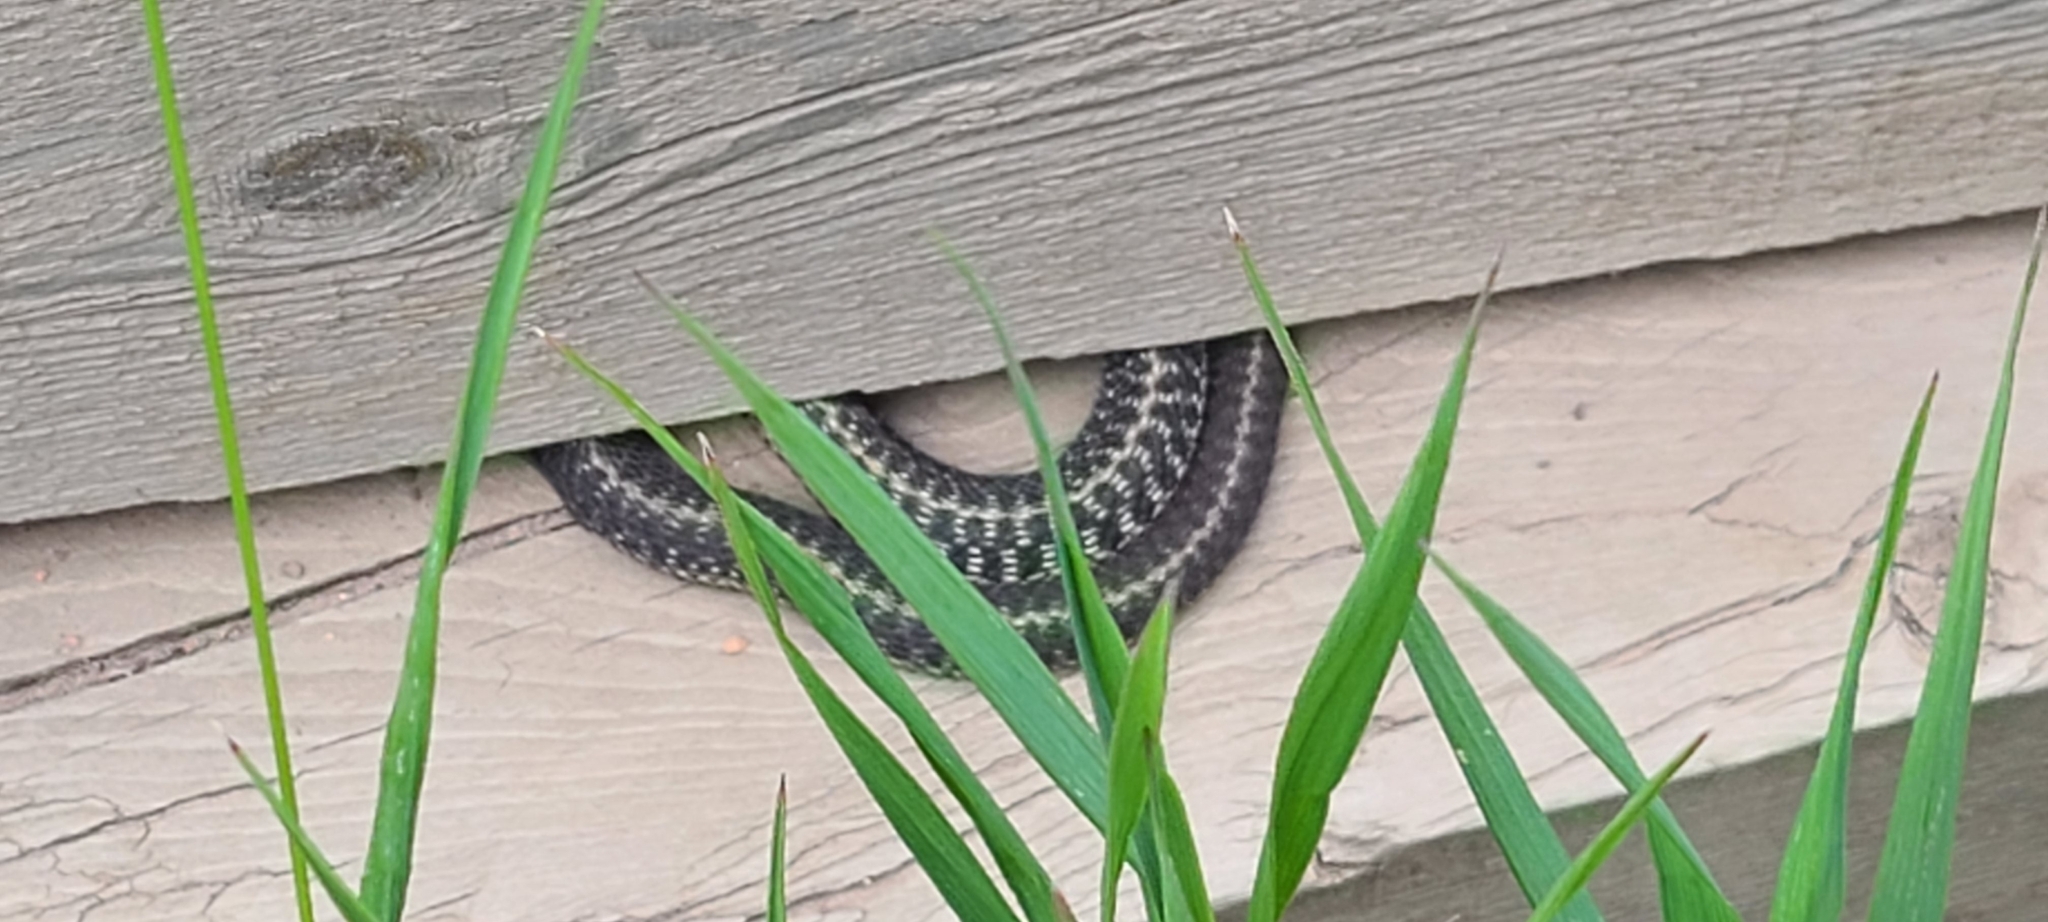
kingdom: Animalia
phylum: Chordata
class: Squamata
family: Colubridae
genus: Thamnophis
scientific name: Thamnophis elegans
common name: Western terrestrial garter snake
